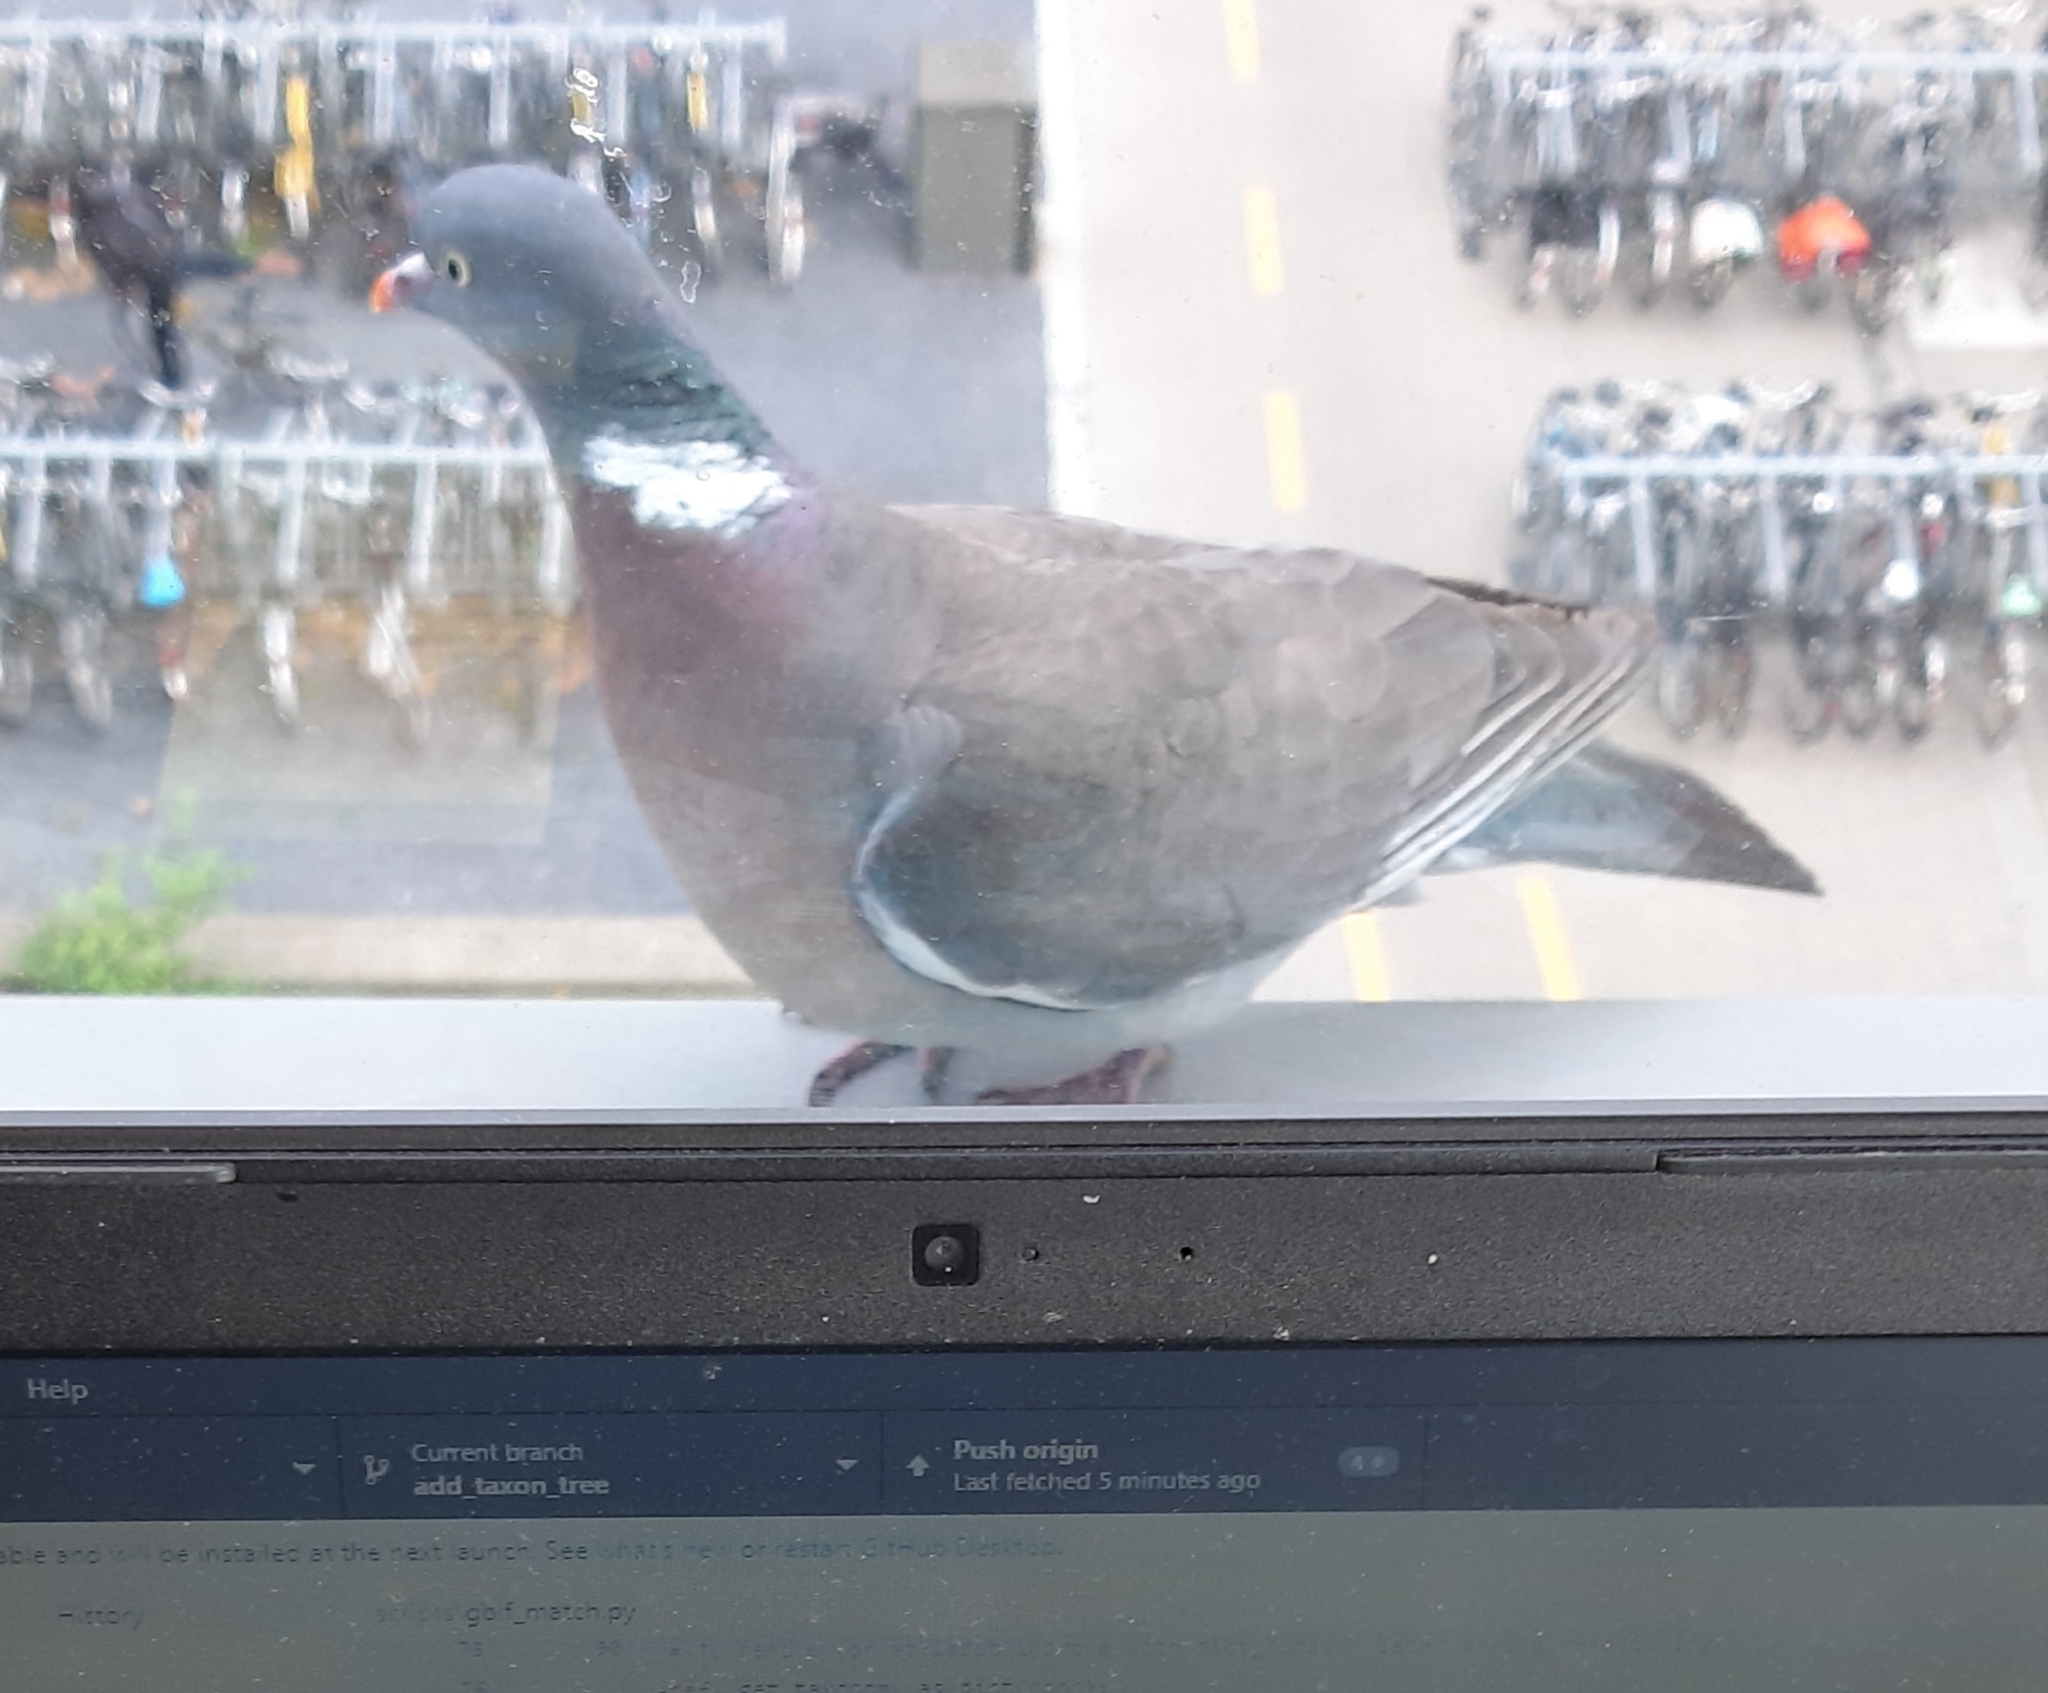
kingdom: Animalia
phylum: Chordata
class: Aves
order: Columbiformes
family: Columbidae
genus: Columba
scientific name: Columba palumbus
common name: Common wood pigeon
